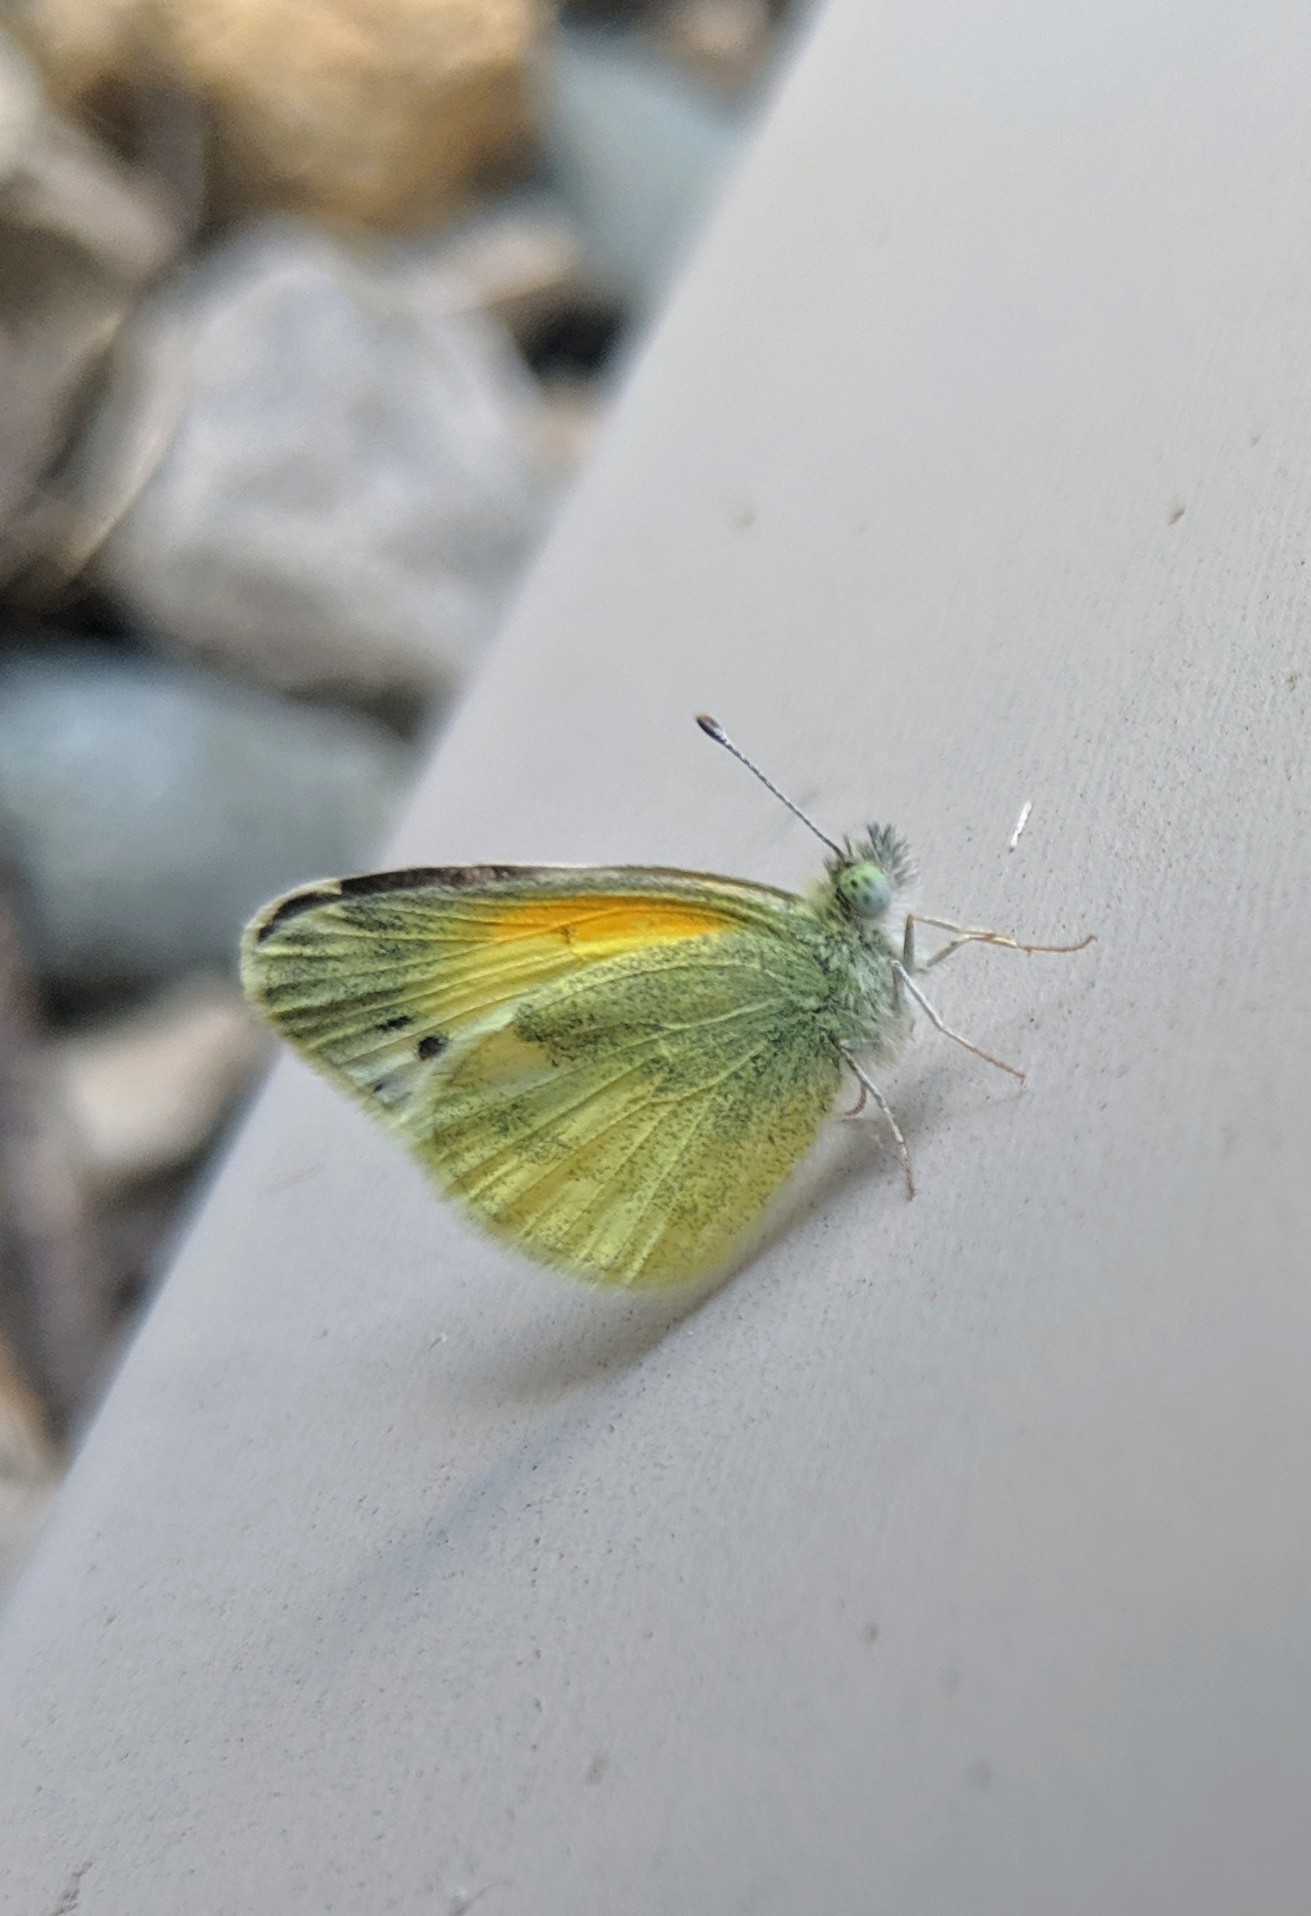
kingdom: Animalia
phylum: Arthropoda
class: Insecta
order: Lepidoptera
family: Pieridae
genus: Nathalis
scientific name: Nathalis iole
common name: Dainty sulphur
